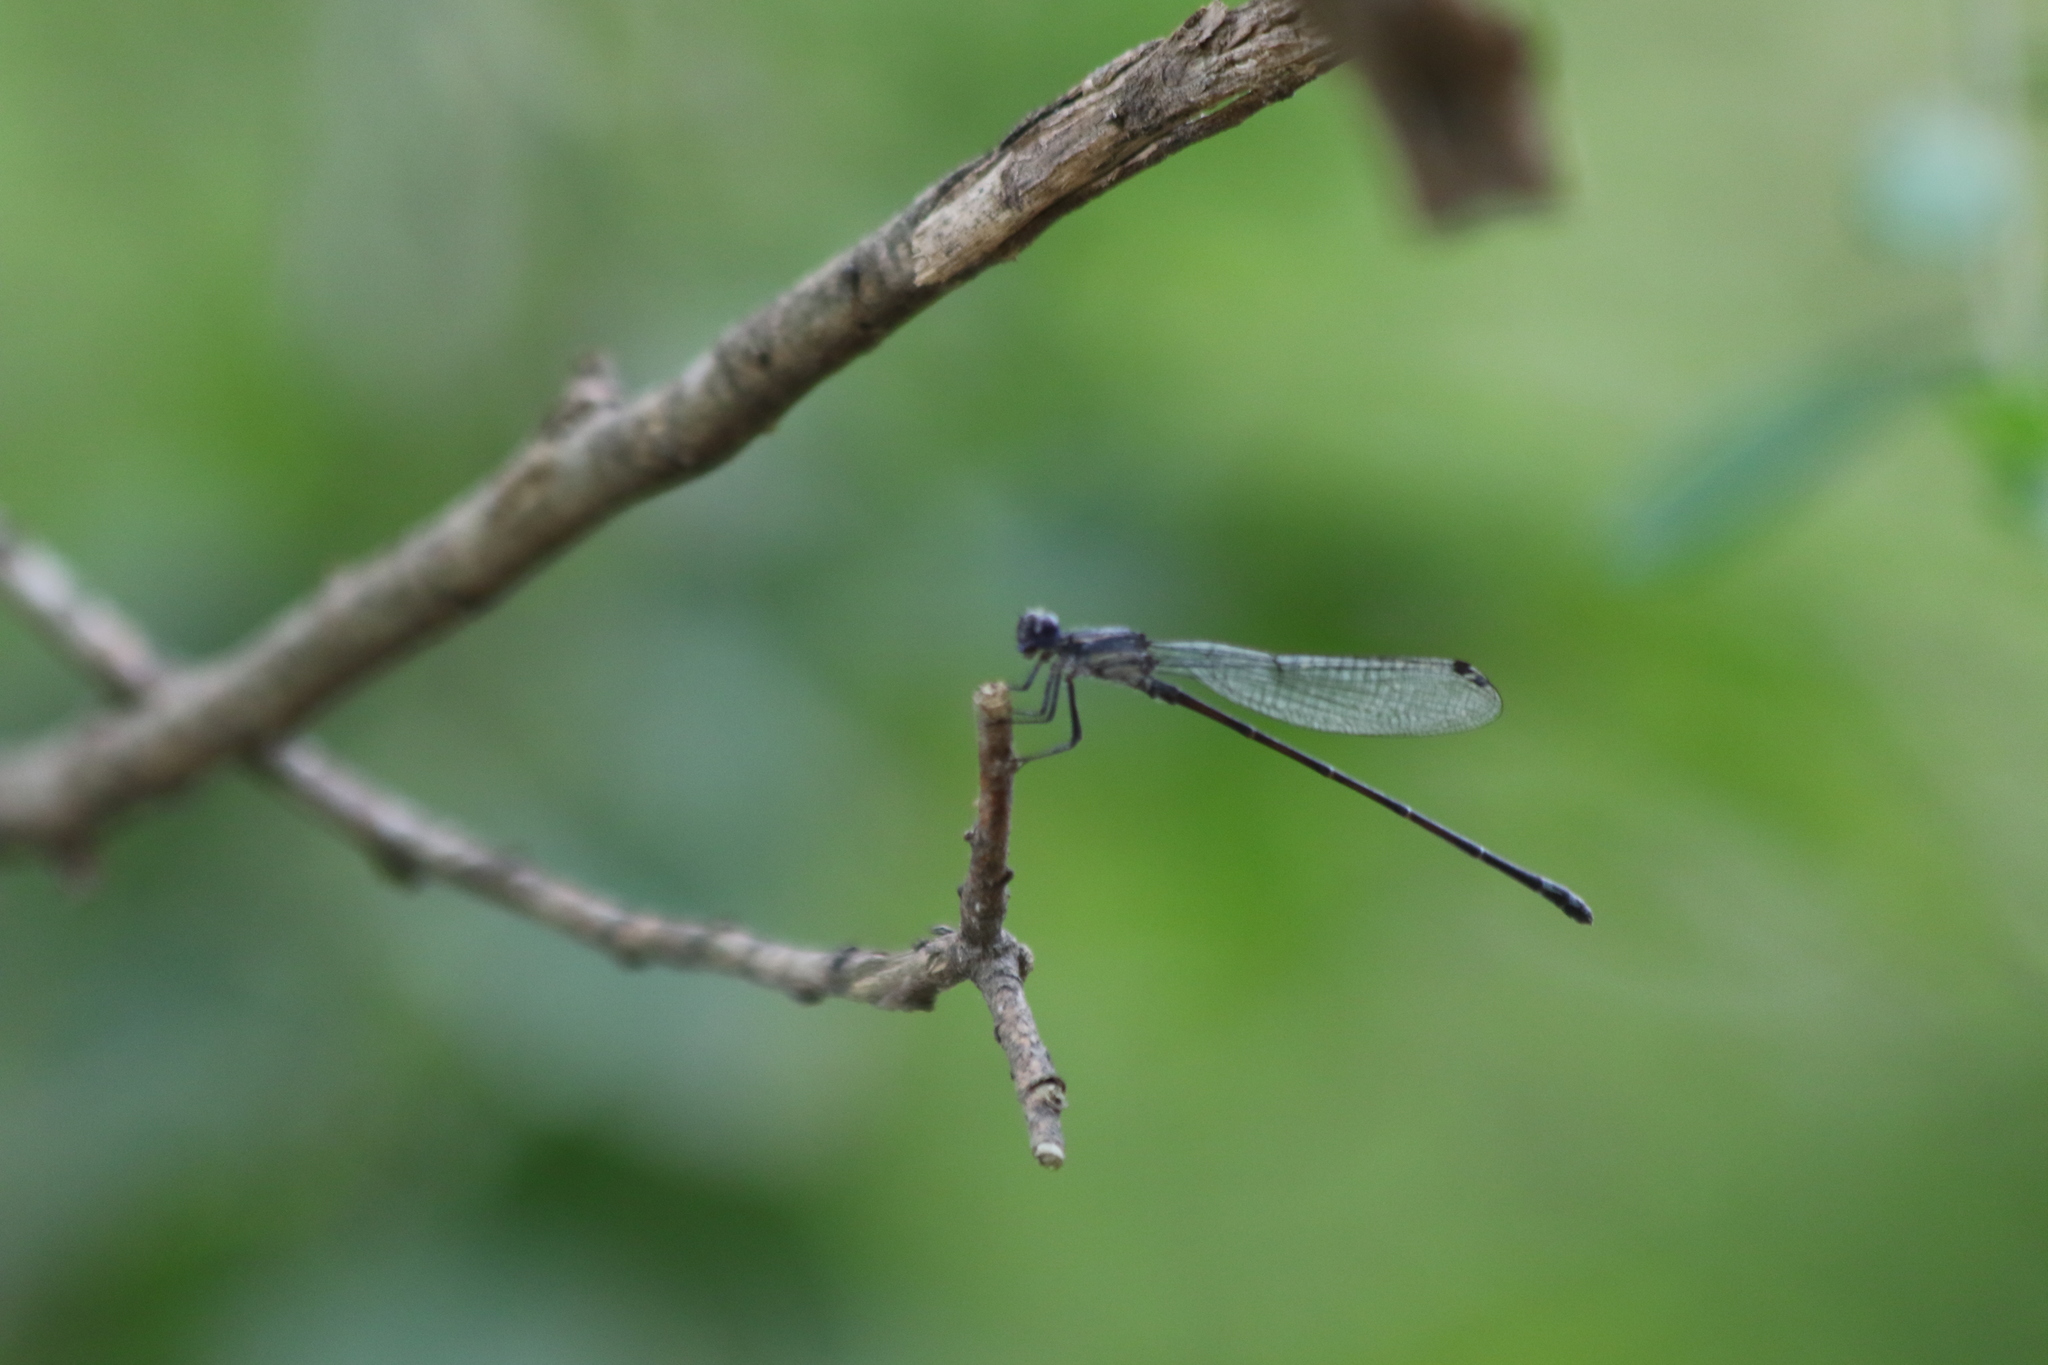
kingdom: Animalia
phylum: Arthropoda
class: Insecta
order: Odonata
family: Coenagrionidae
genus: Argia
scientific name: Argia translata
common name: Dusky dancer
